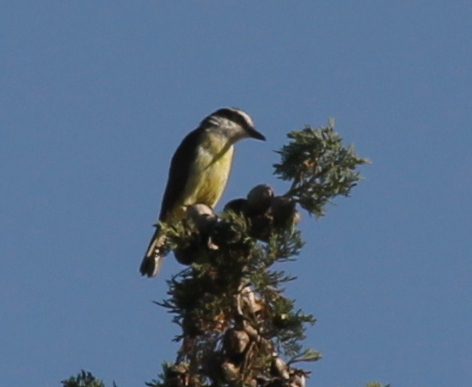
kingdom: Animalia
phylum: Chordata
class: Aves
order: Passeriformes
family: Tyrannidae
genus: Pitangus
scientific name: Pitangus sulphuratus
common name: Great kiskadee
